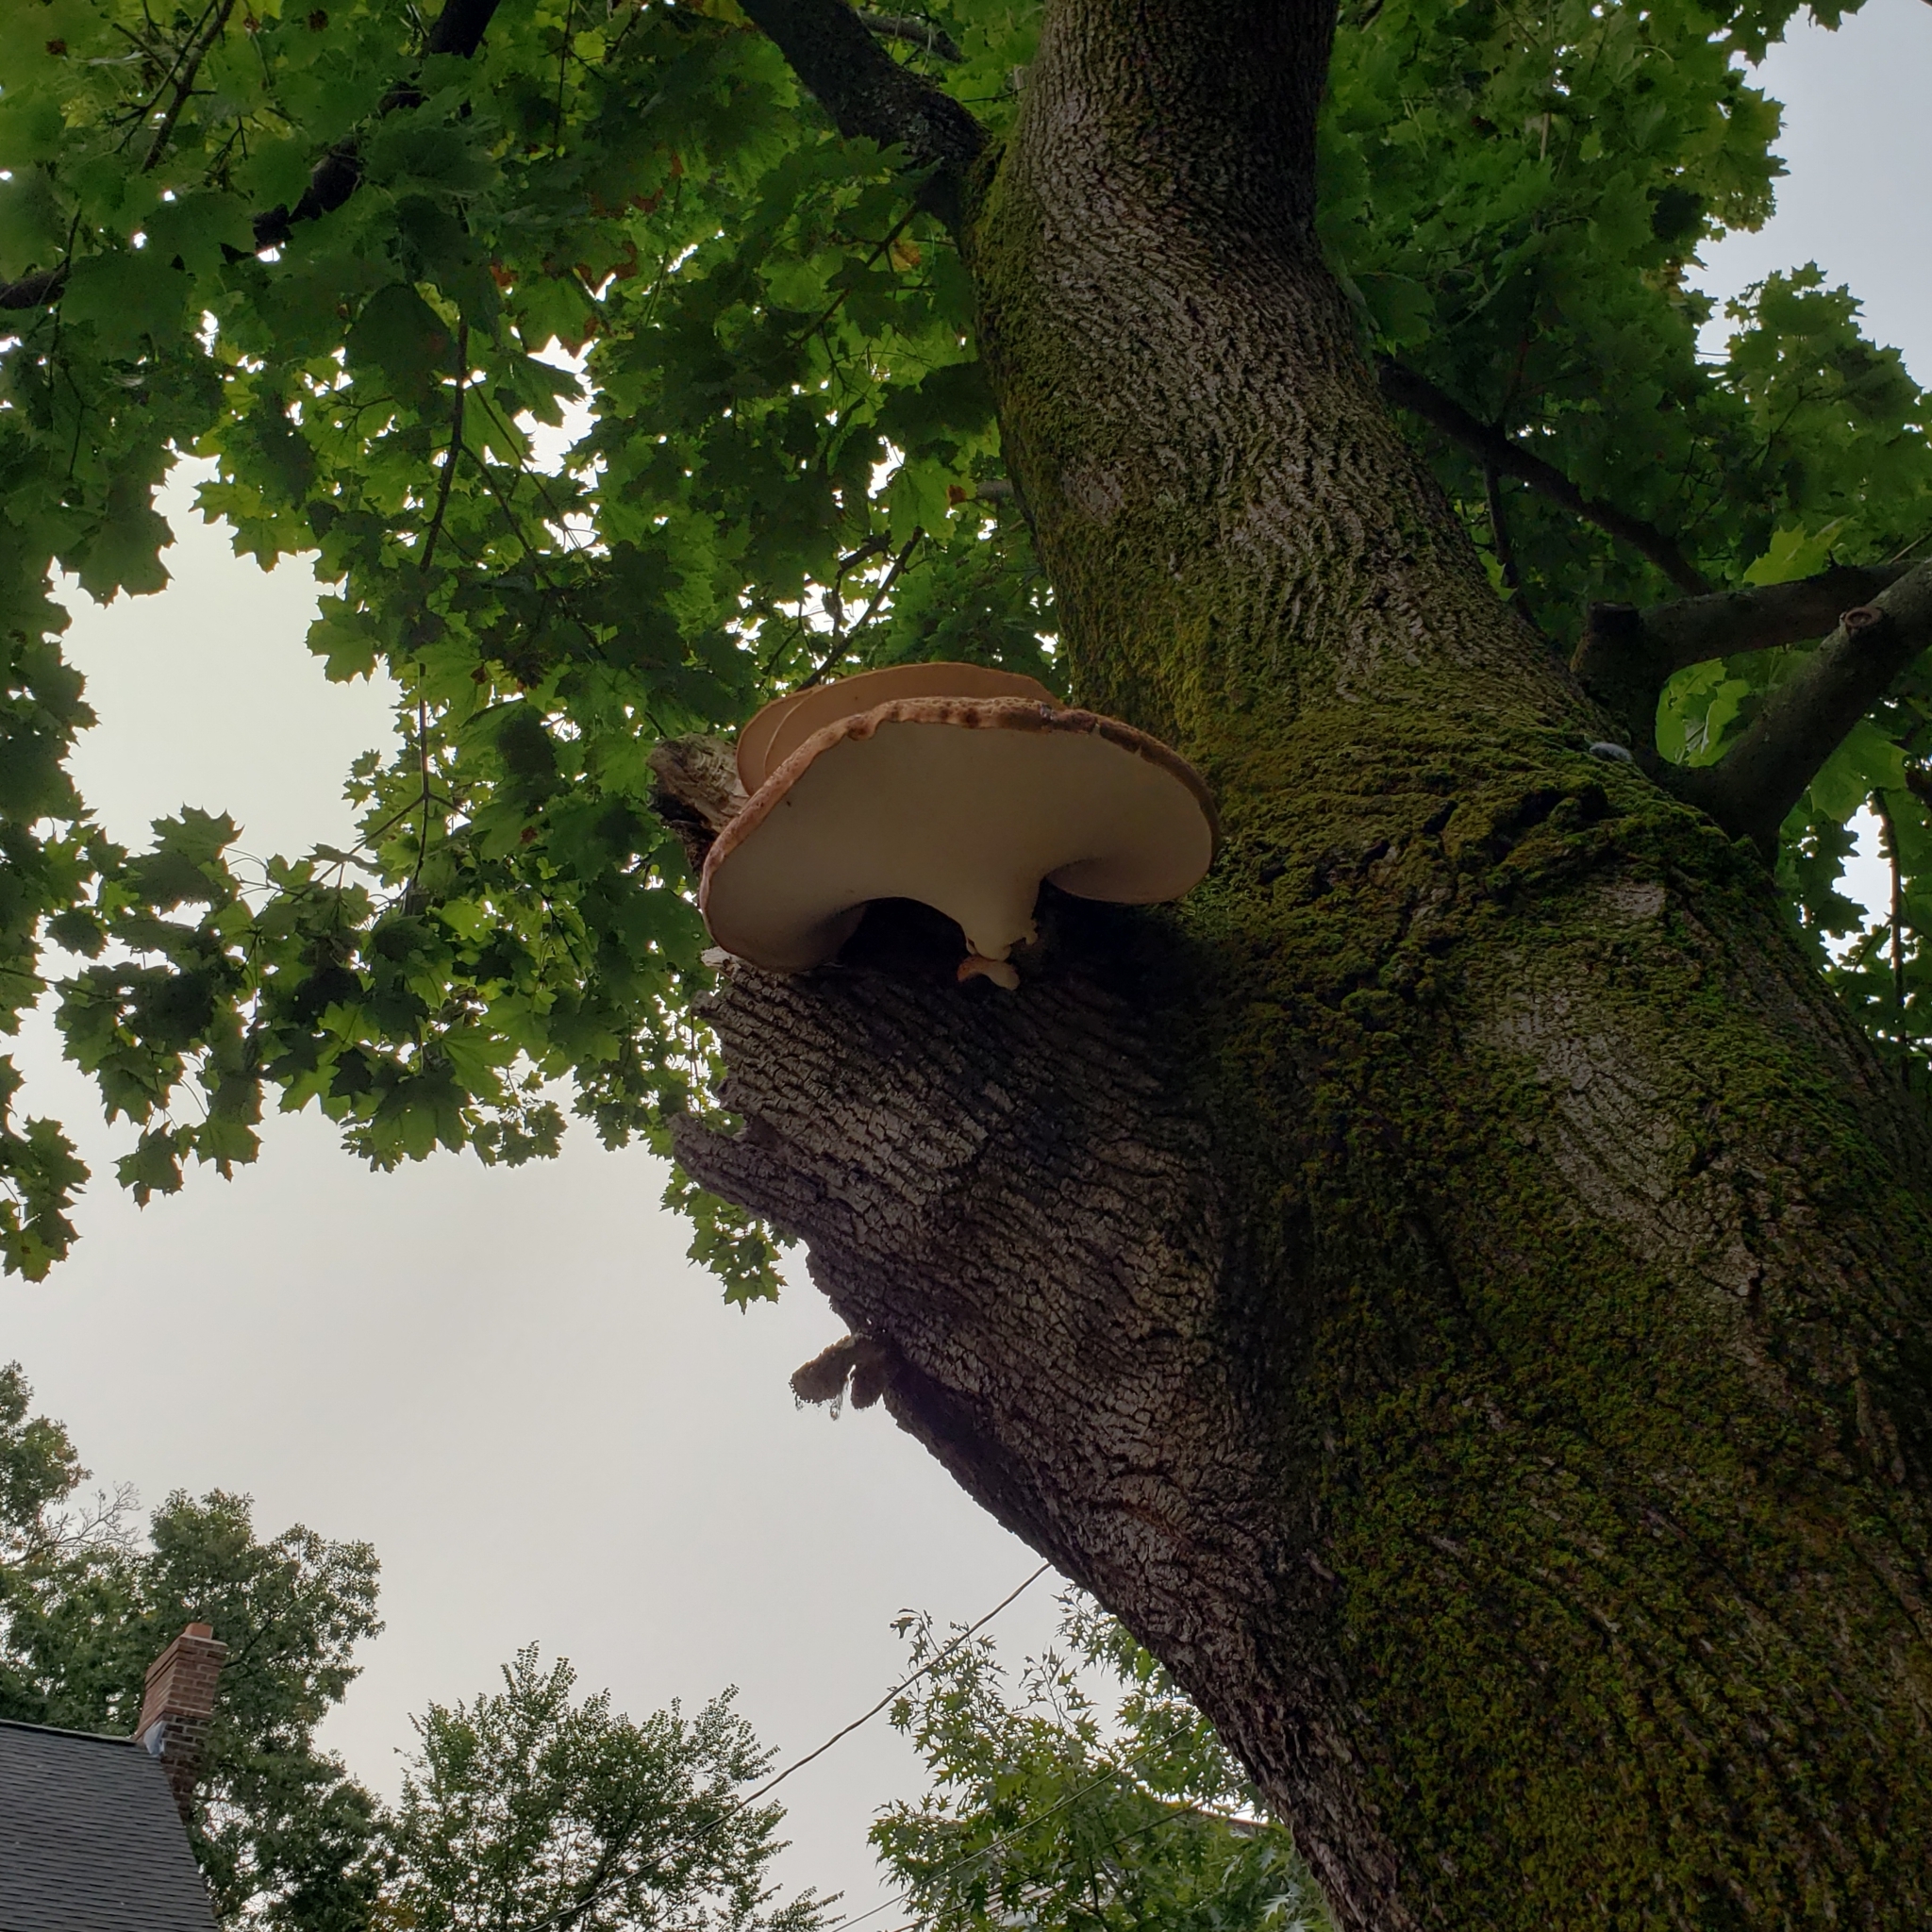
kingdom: Fungi
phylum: Basidiomycota
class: Agaricomycetes
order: Polyporales
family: Polyporaceae
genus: Cerioporus
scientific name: Cerioporus squamosus
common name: Dryad's saddle
